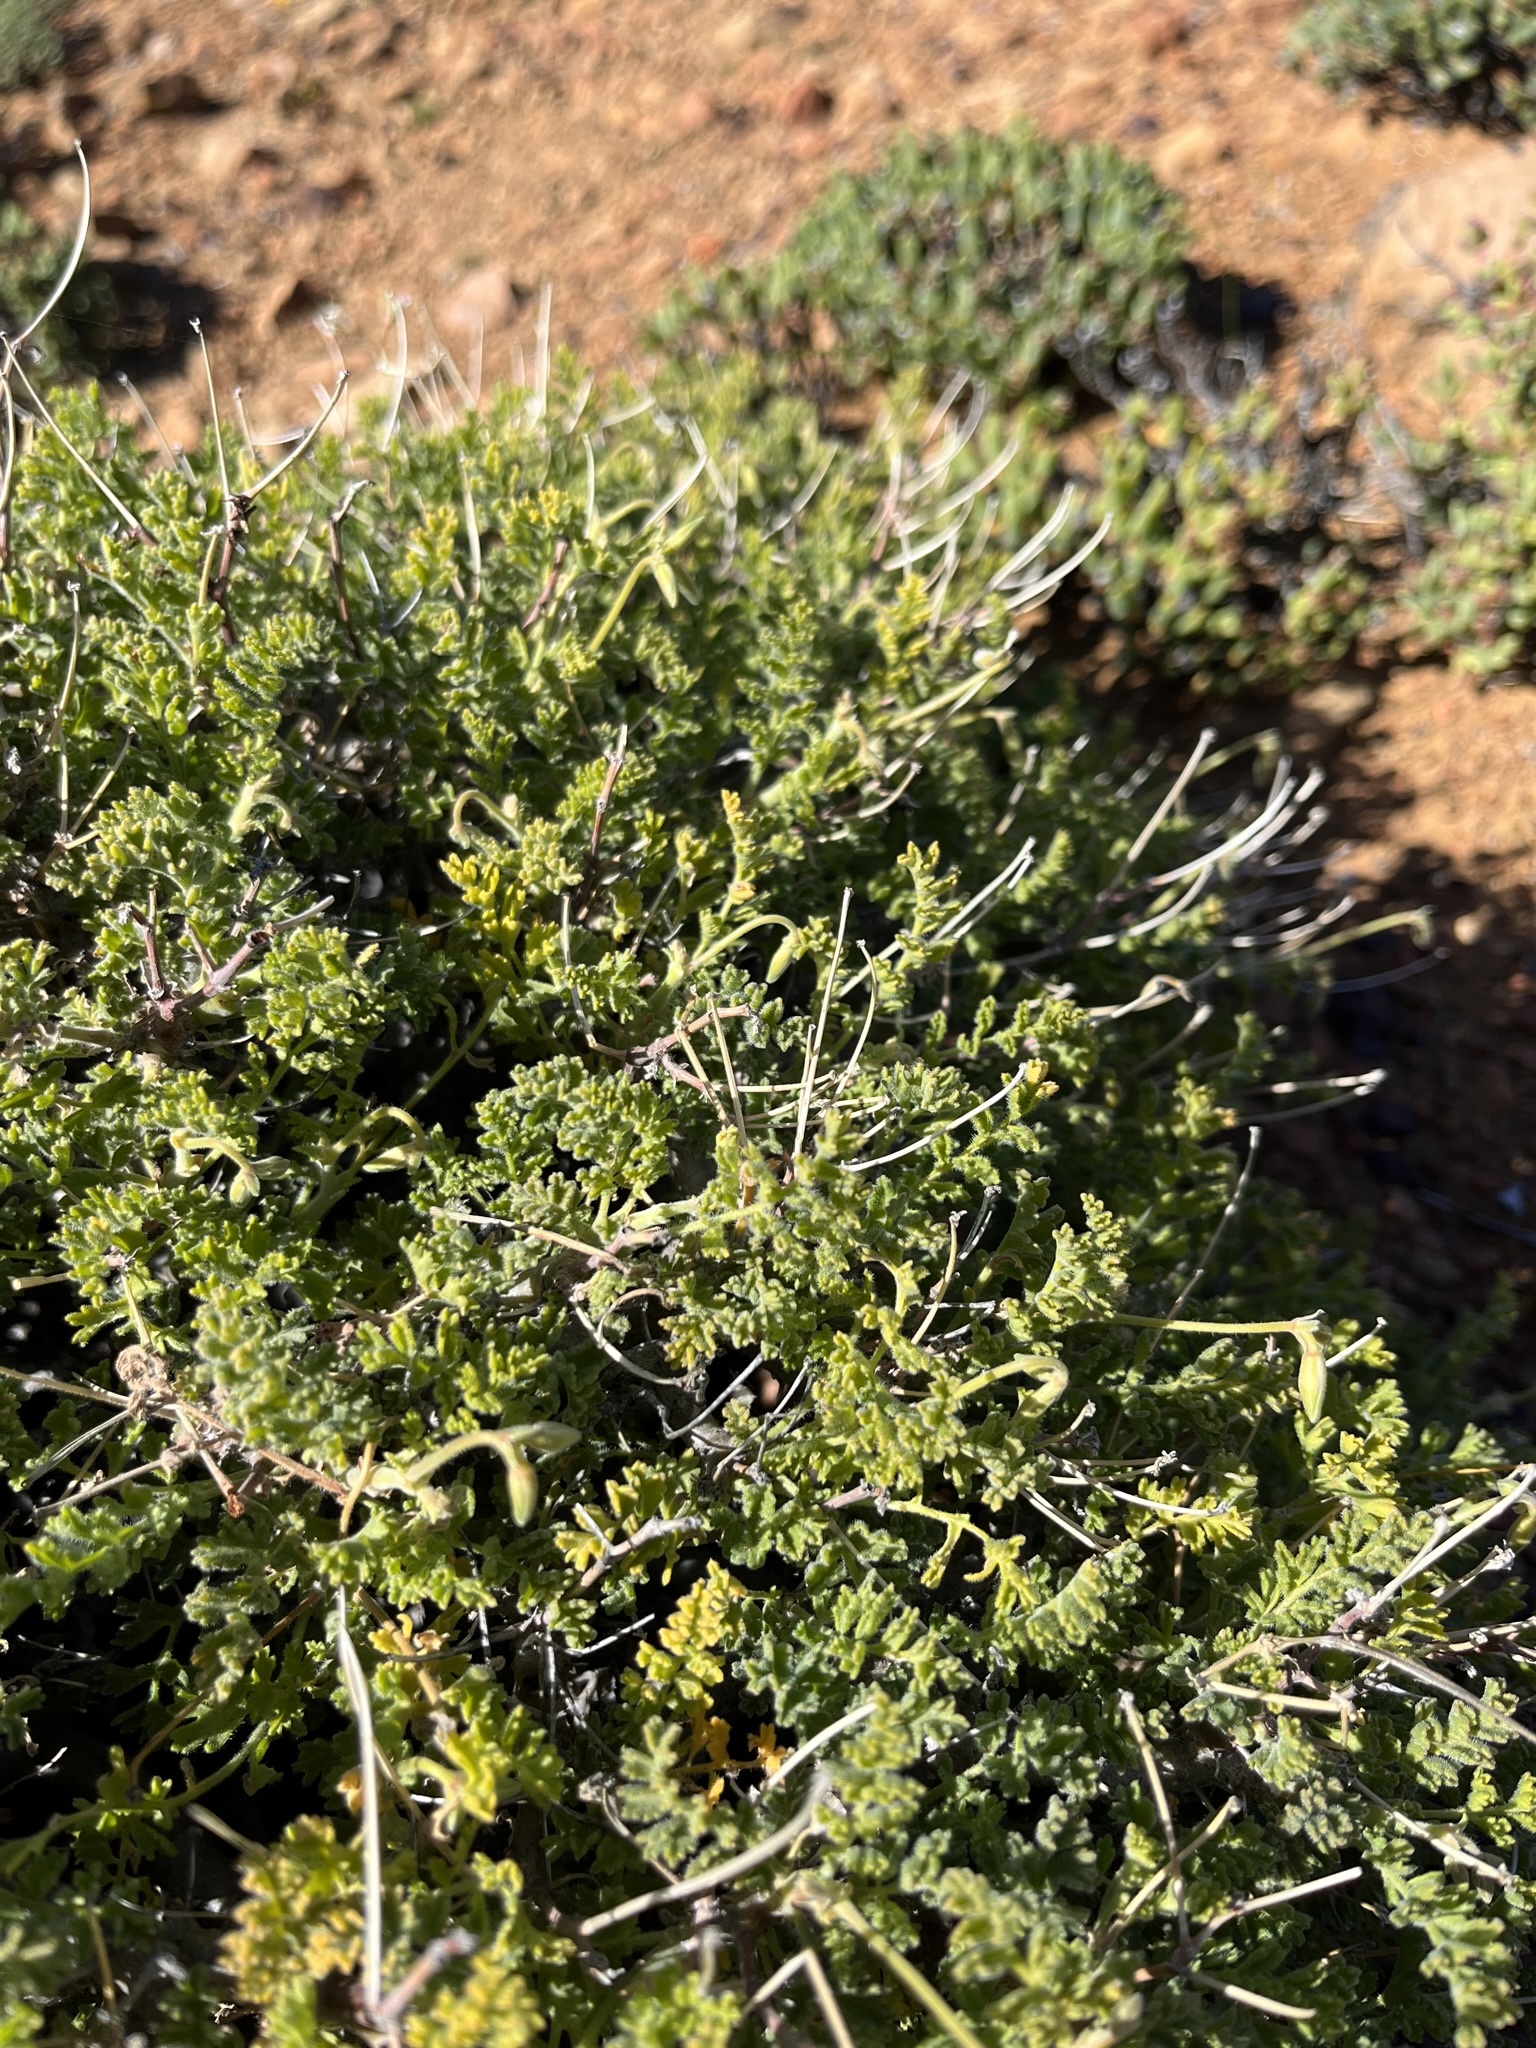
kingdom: Plantae
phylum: Tracheophyta
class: Magnoliopsida
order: Geraniales
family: Geraniaceae
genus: Pelargonium
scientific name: Pelargonium alternans
